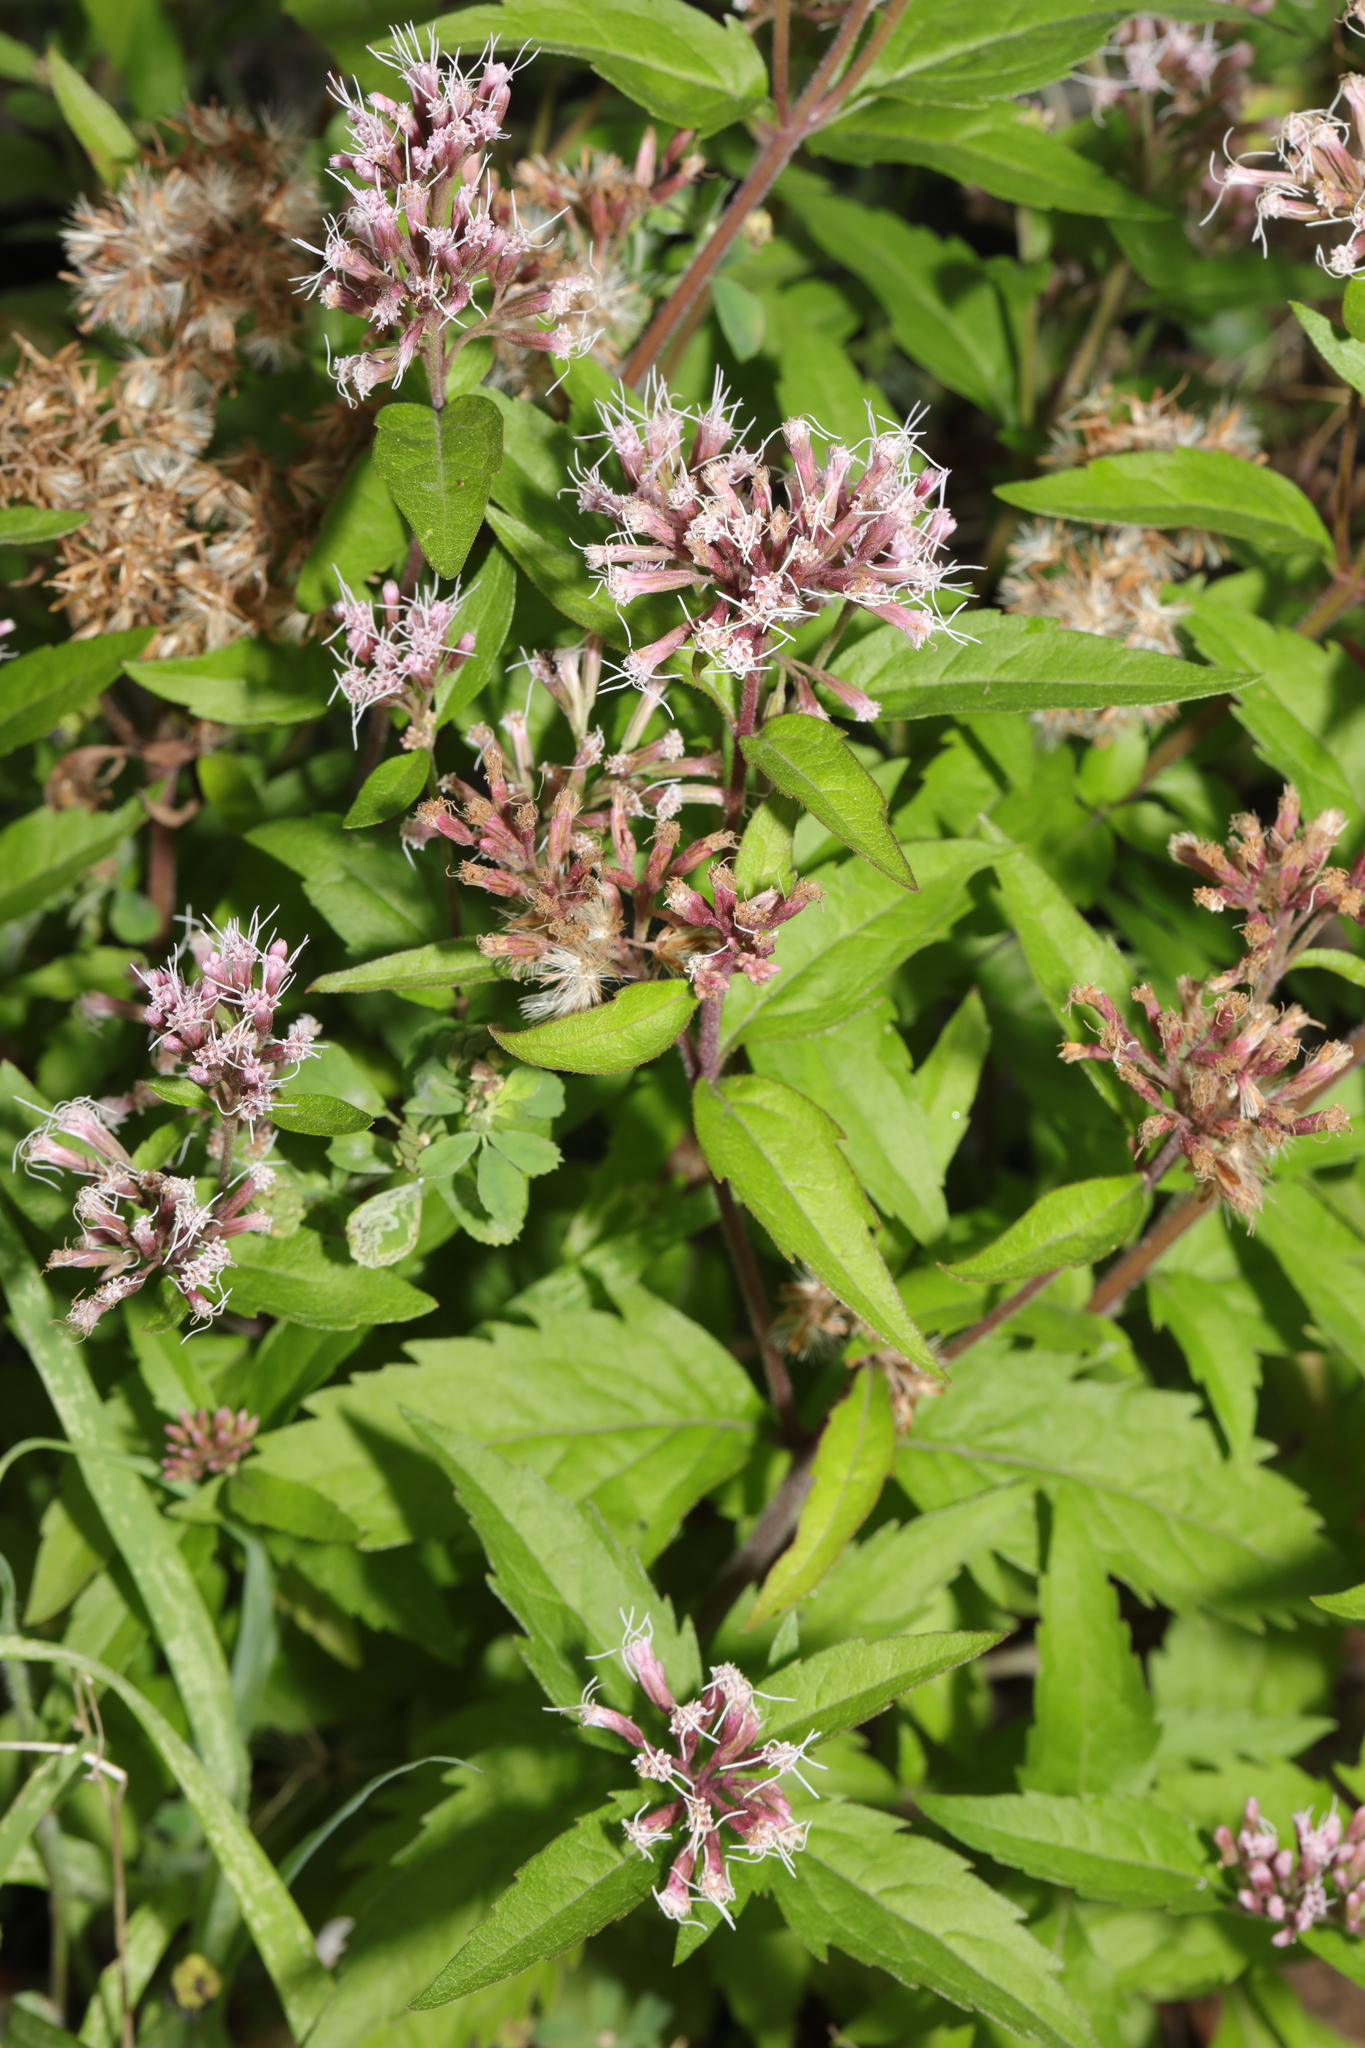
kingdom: Plantae
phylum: Tracheophyta
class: Magnoliopsida
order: Asterales
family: Asteraceae
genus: Eupatorium
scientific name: Eupatorium cannabinum
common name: Hemp-agrimony
